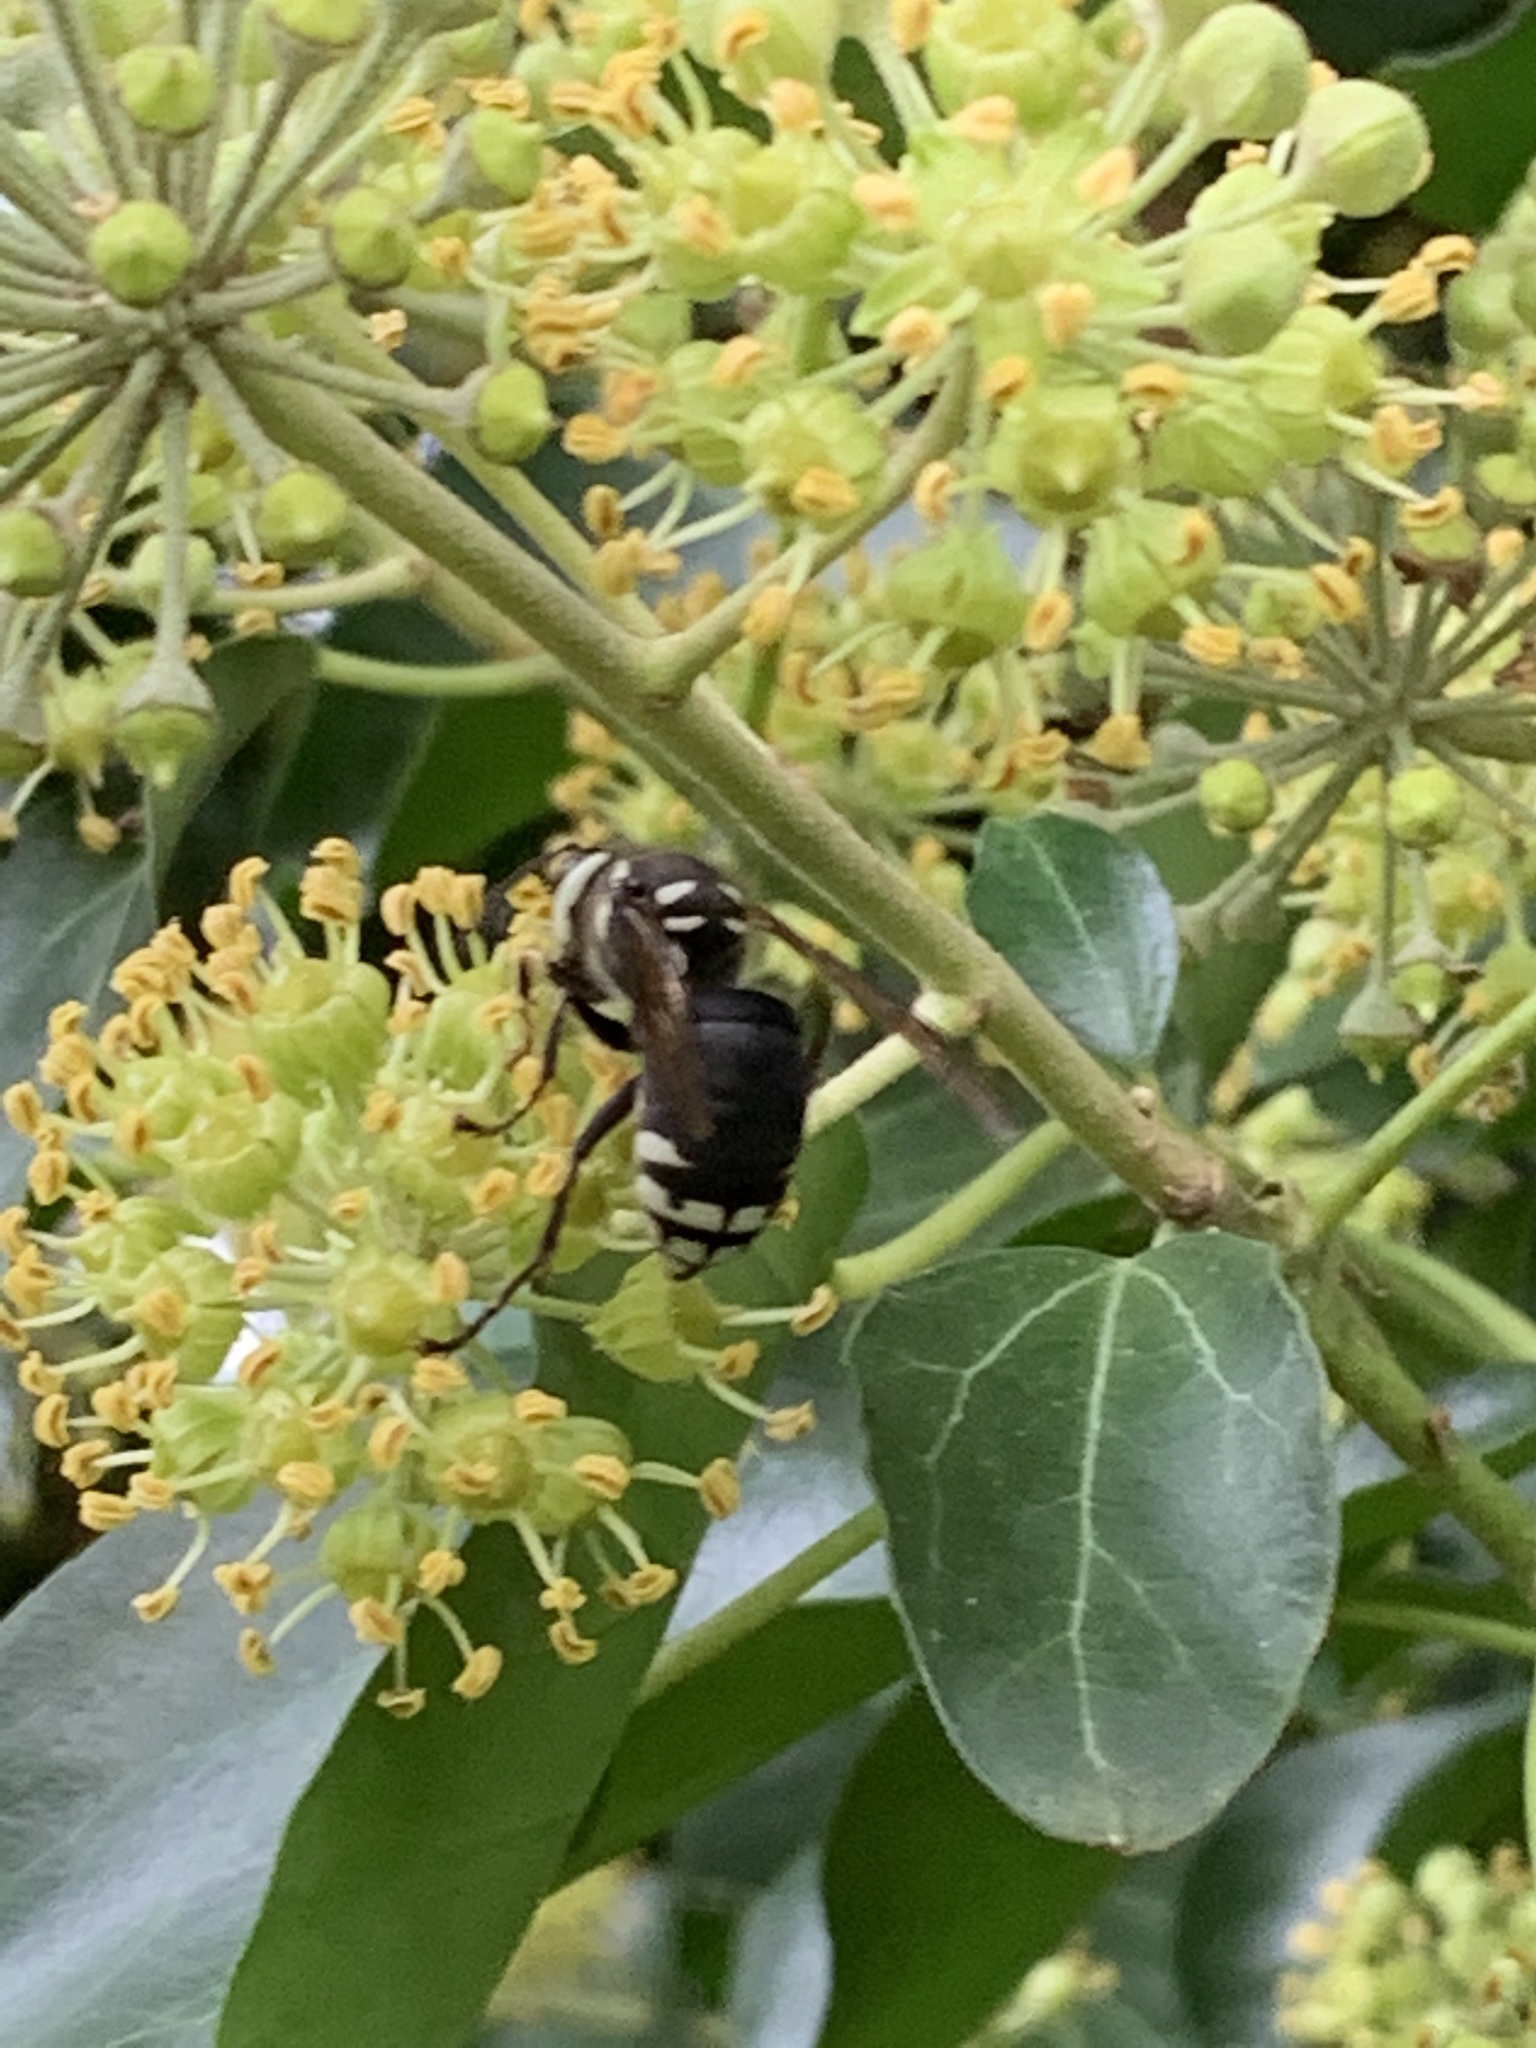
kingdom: Animalia
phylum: Arthropoda
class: Insecta
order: Hymenoptera
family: Vespidae
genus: Dolichovespula
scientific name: Dolichovespula maculata
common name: Bald-faced hornet
